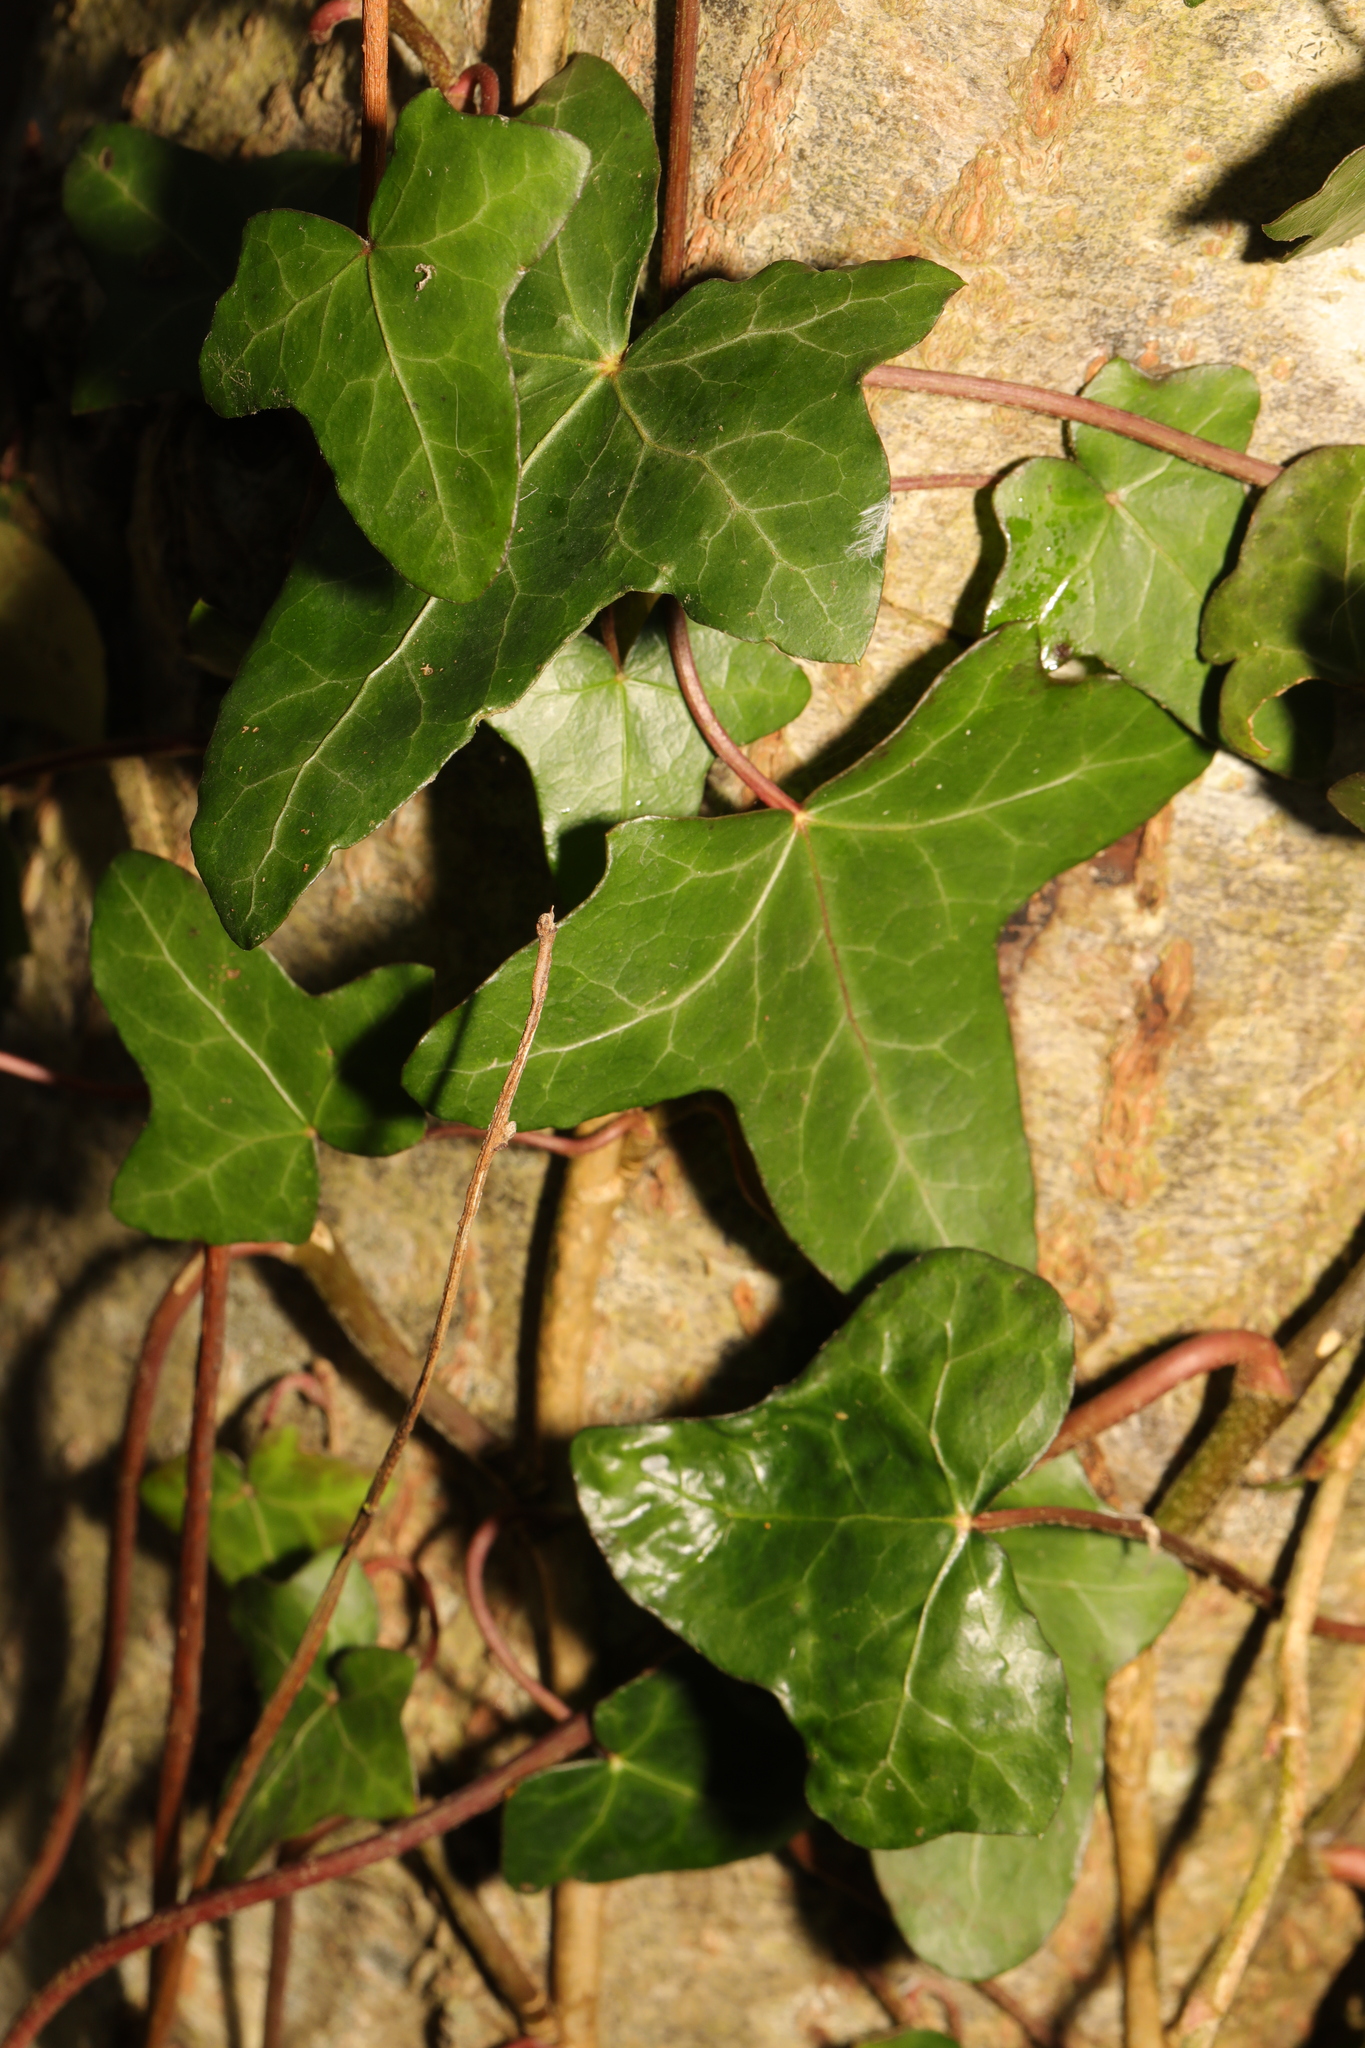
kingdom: Plantae
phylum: Tracheophyta
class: Magnoliopsida
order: Apiales
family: Araliaceae
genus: Hedera
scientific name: Hedera helix
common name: Ivy
